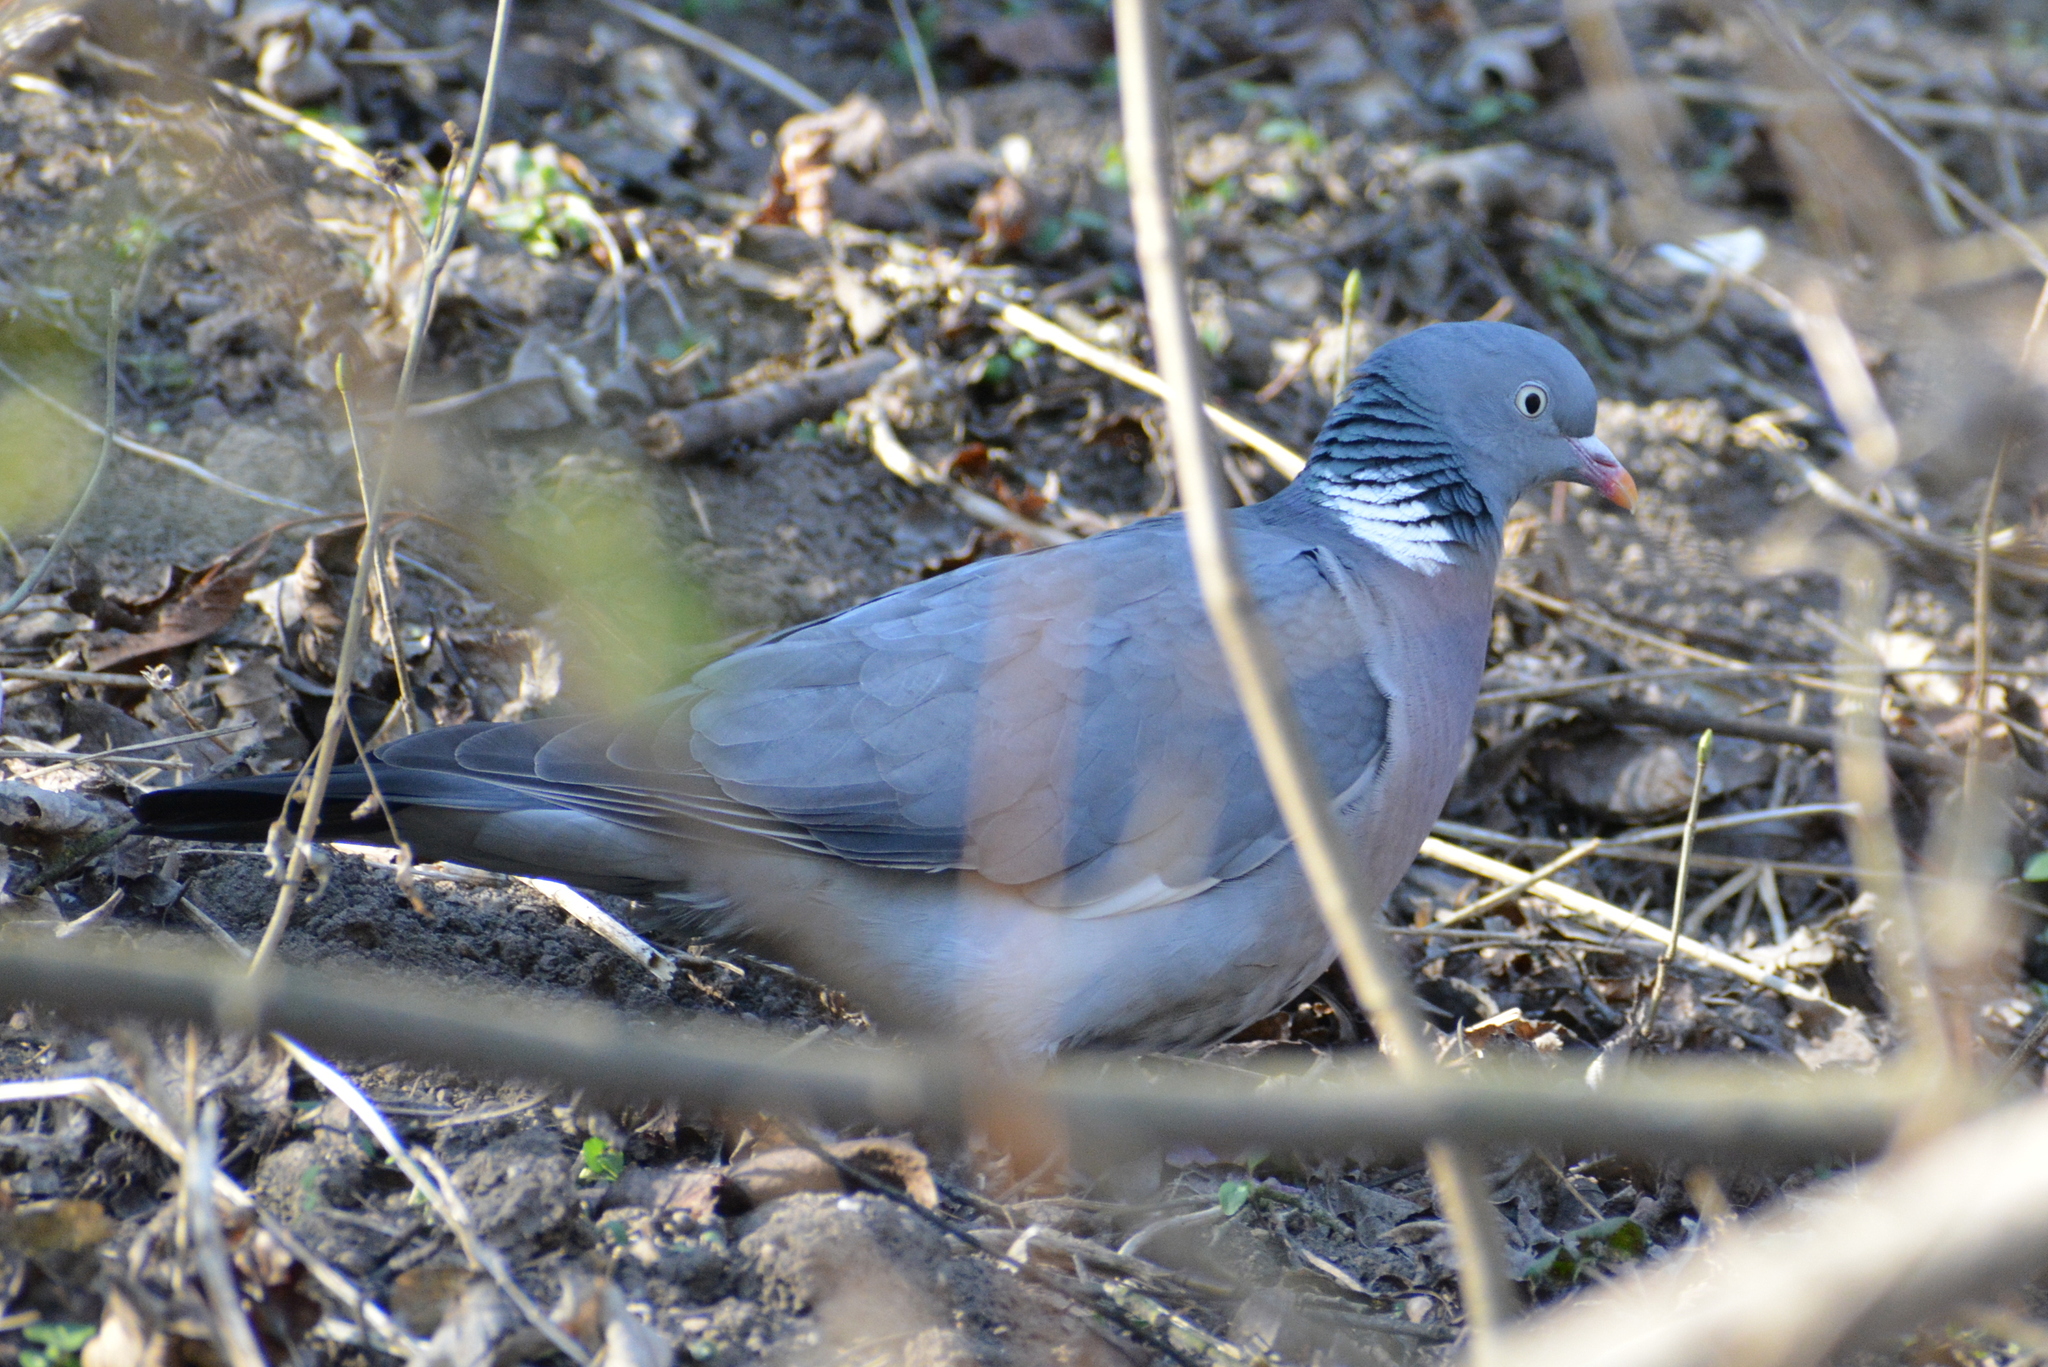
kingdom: Animalia
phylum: Chordata
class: Aves
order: Columbiformes
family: Columbidae
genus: Columba
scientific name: Columba palumbus
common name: Common wood pigeon
